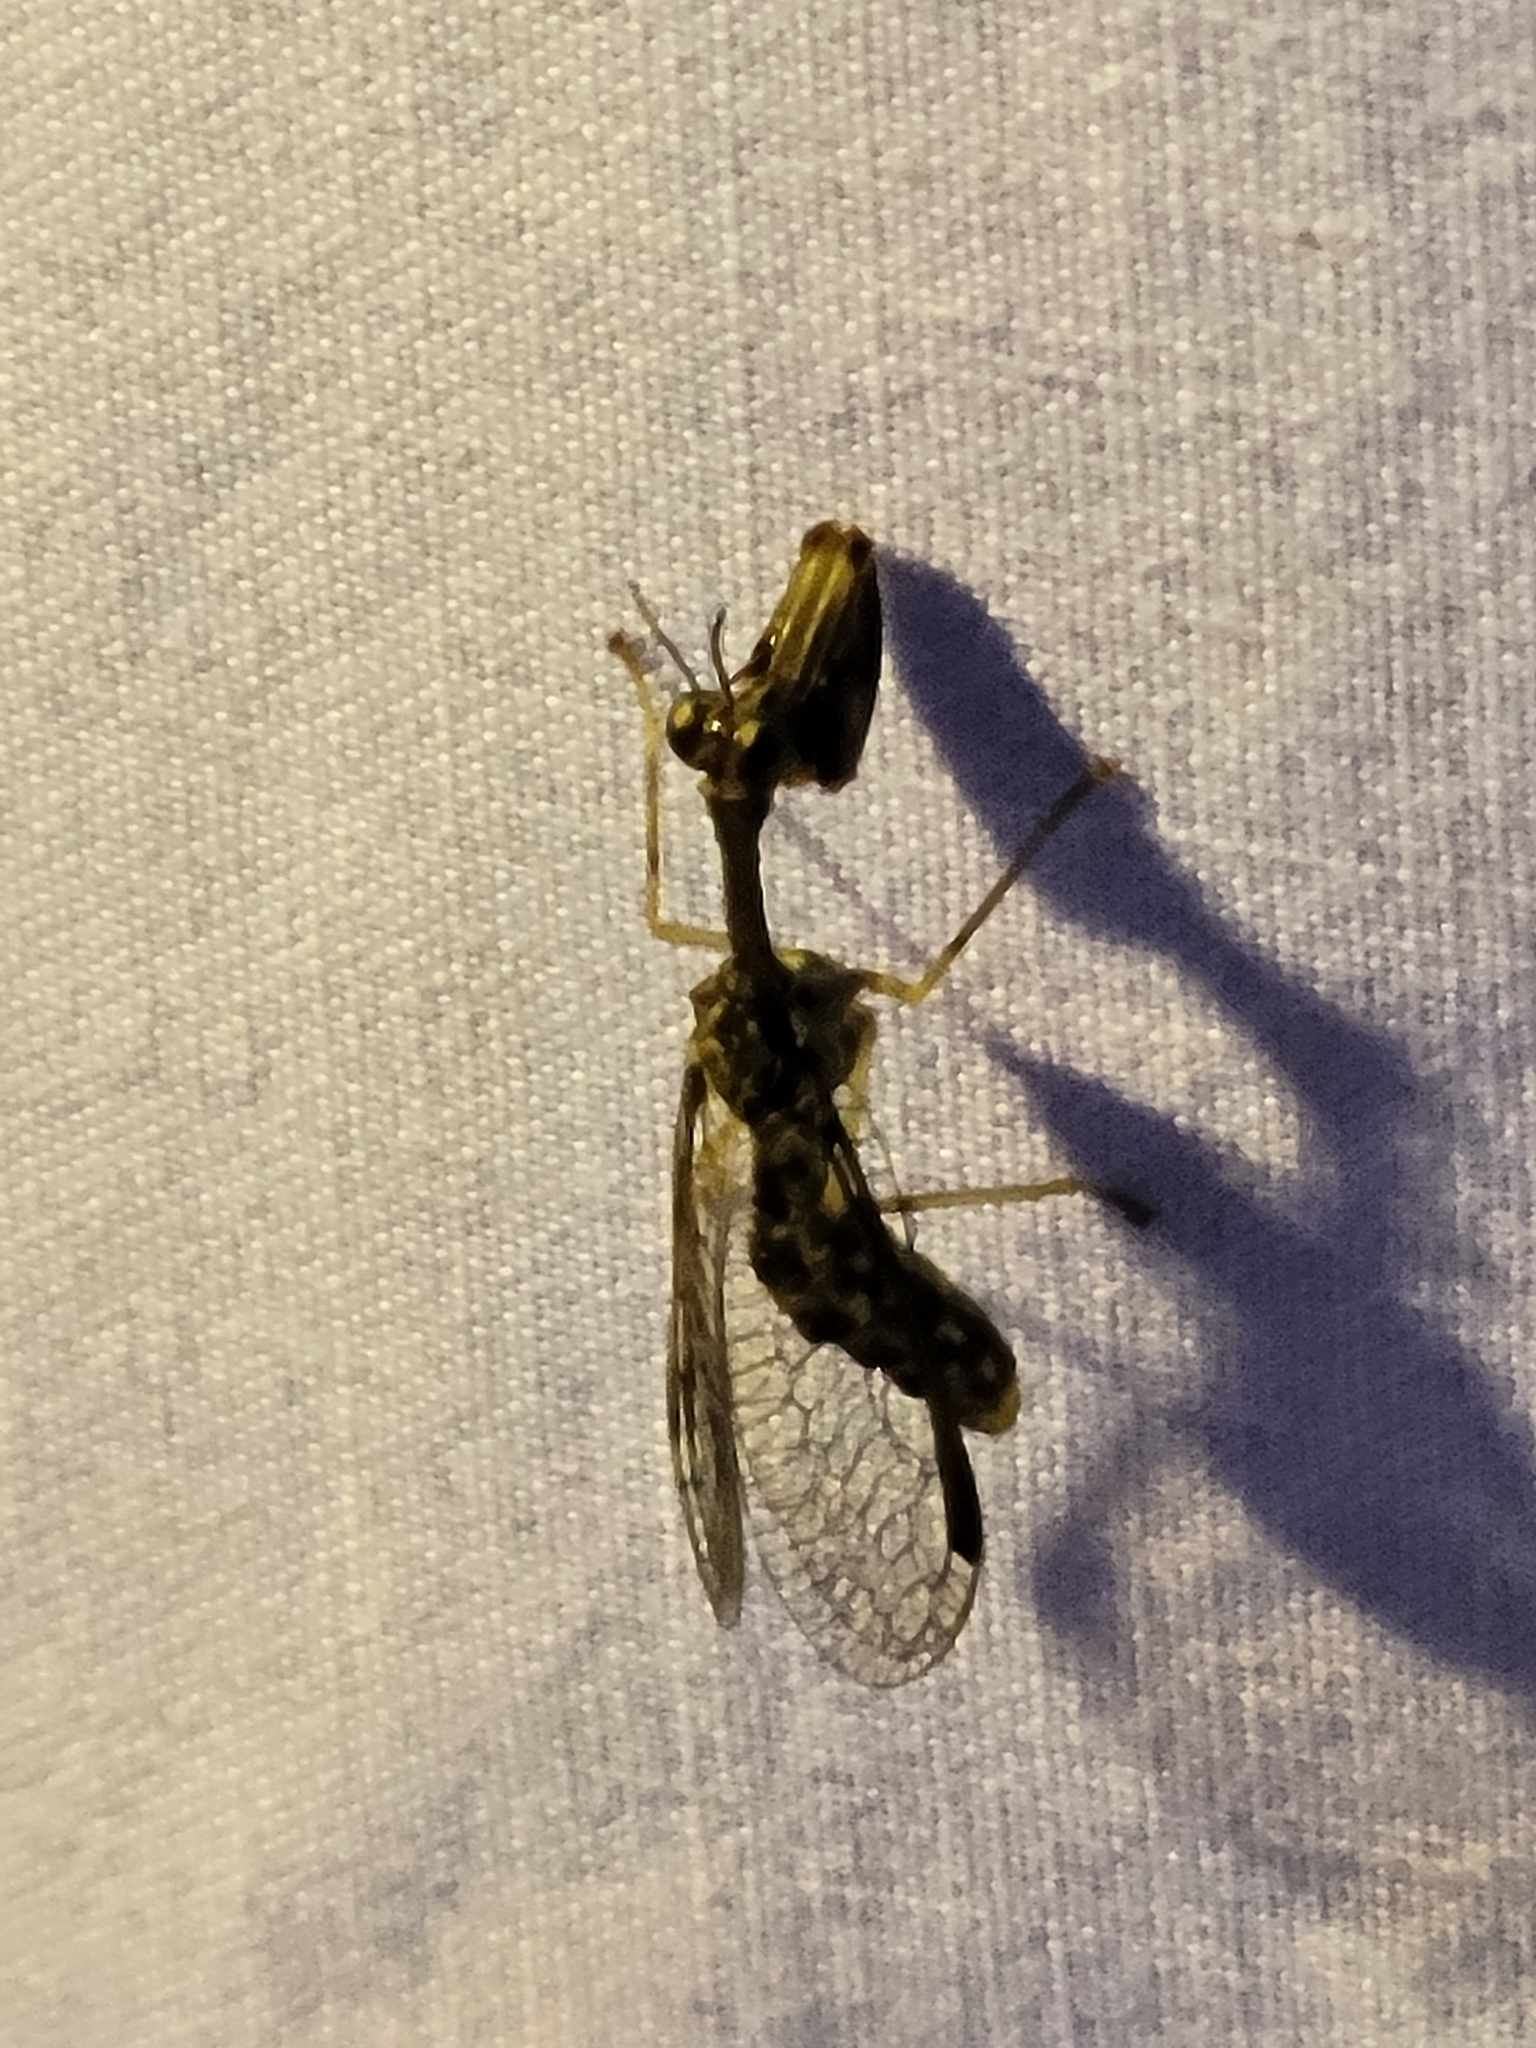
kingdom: Animalia
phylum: Arthropoda
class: Insecta
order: Neuroptera
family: Mantispidae
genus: Dicromantispa
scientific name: Dicromantispa sayi
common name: Say's mantidfly
